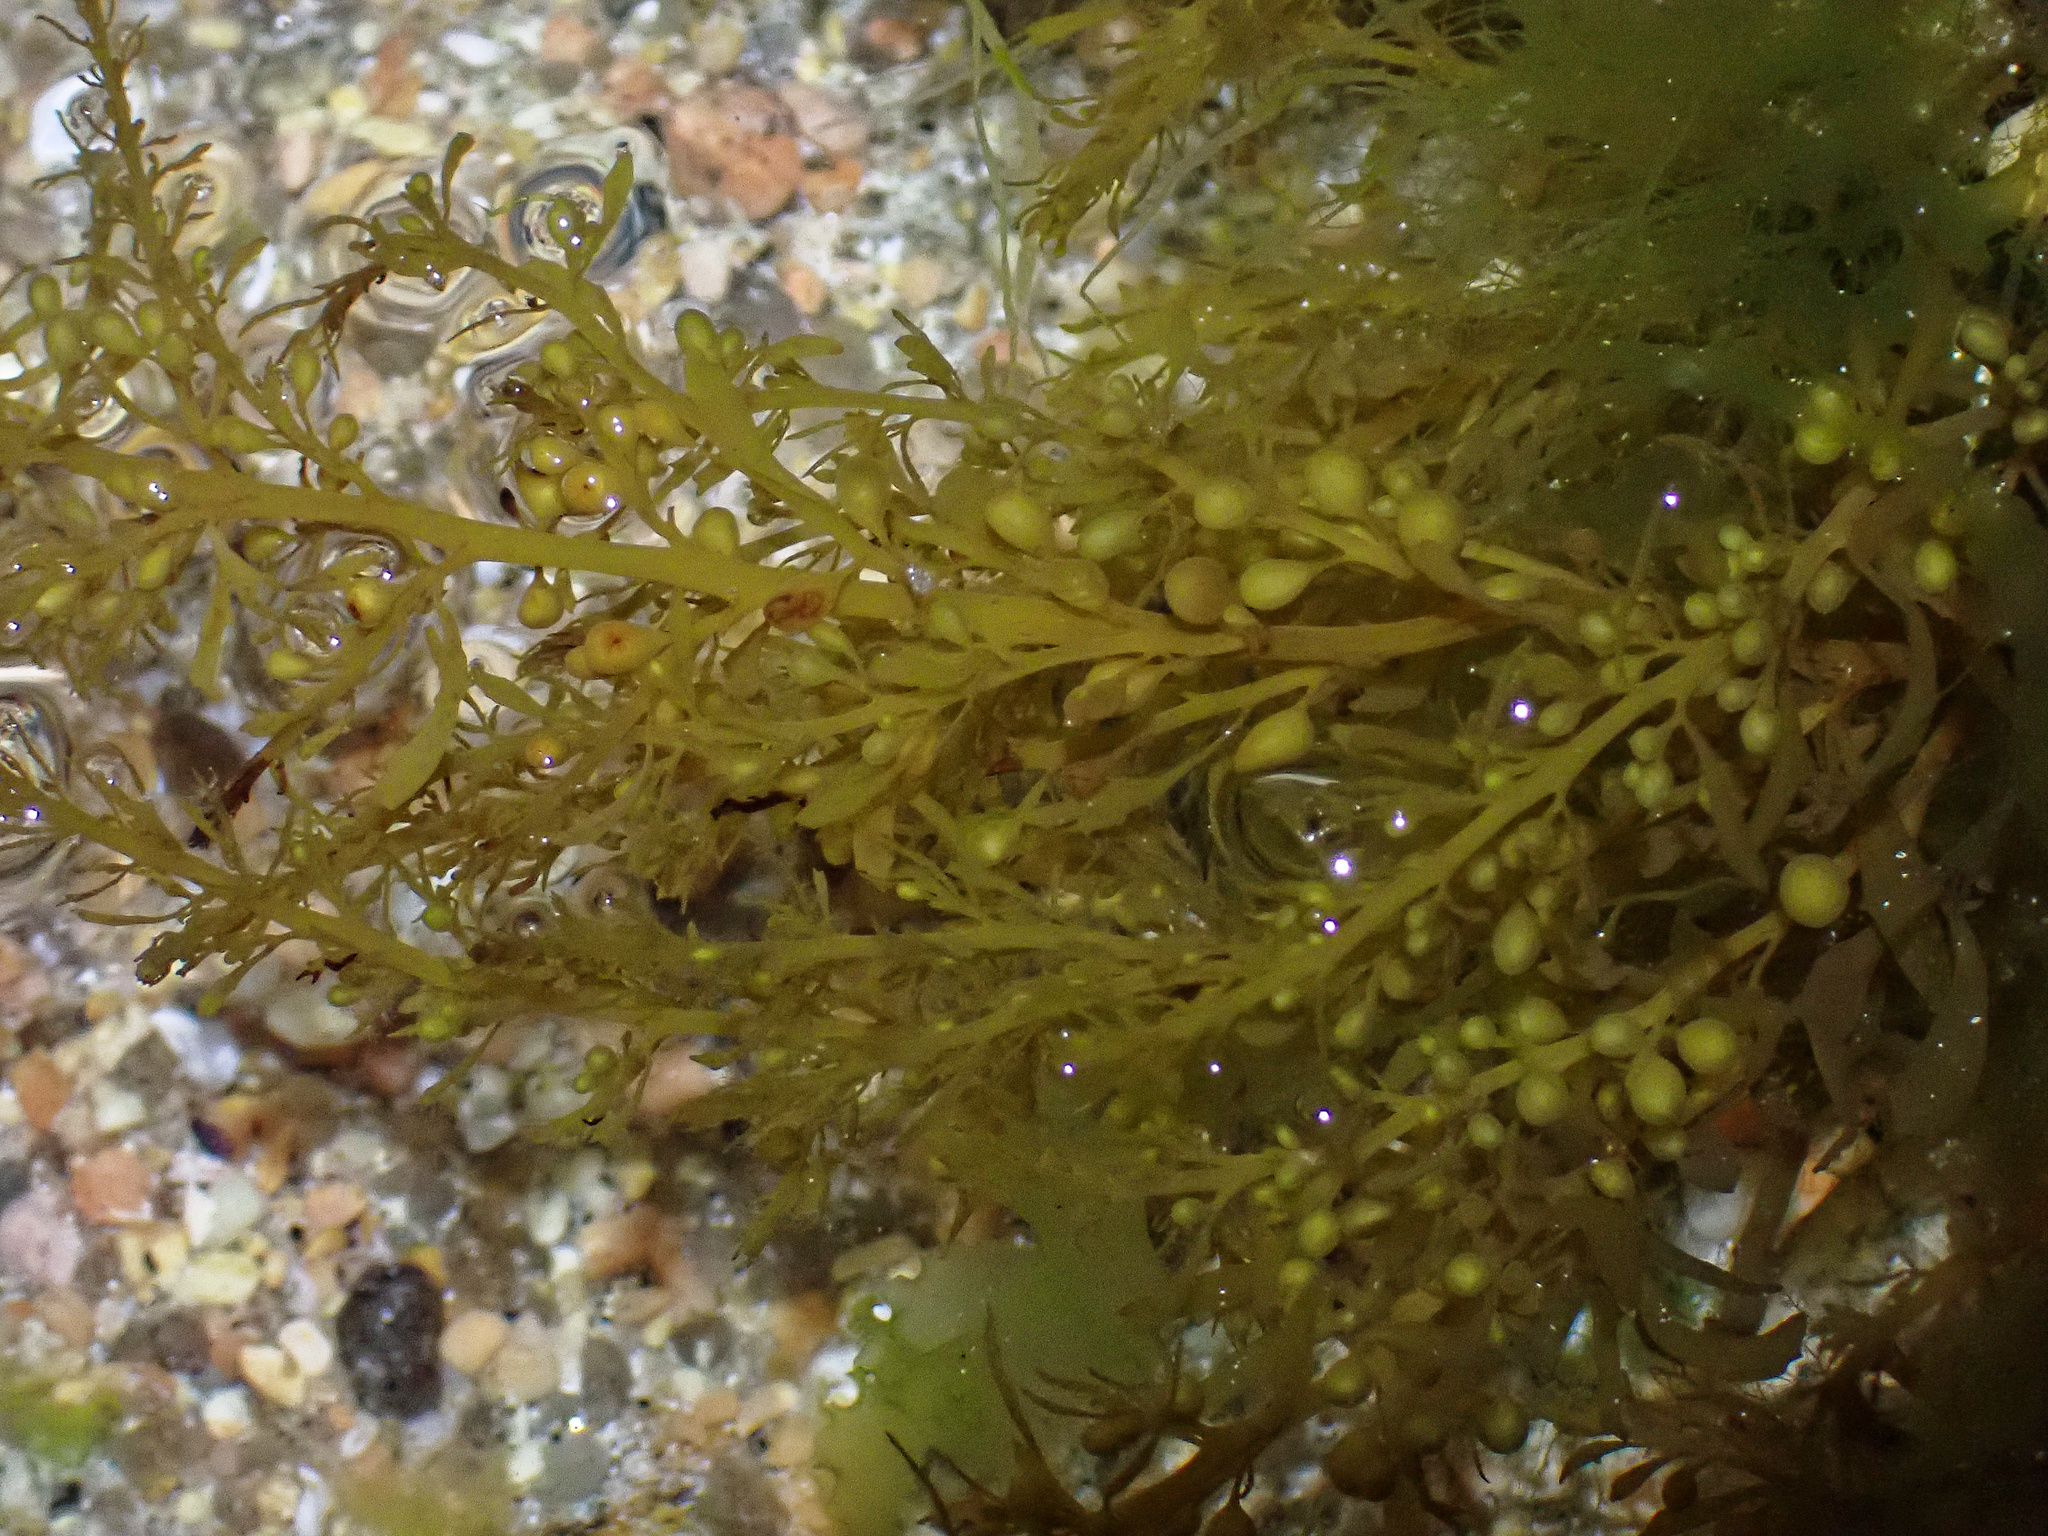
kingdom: Chromista
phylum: Ochrophyta
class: Phaeophyceae
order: Fucales
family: Sargassaceae
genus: Sargassum
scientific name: Sargassum muticum
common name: Japweed
